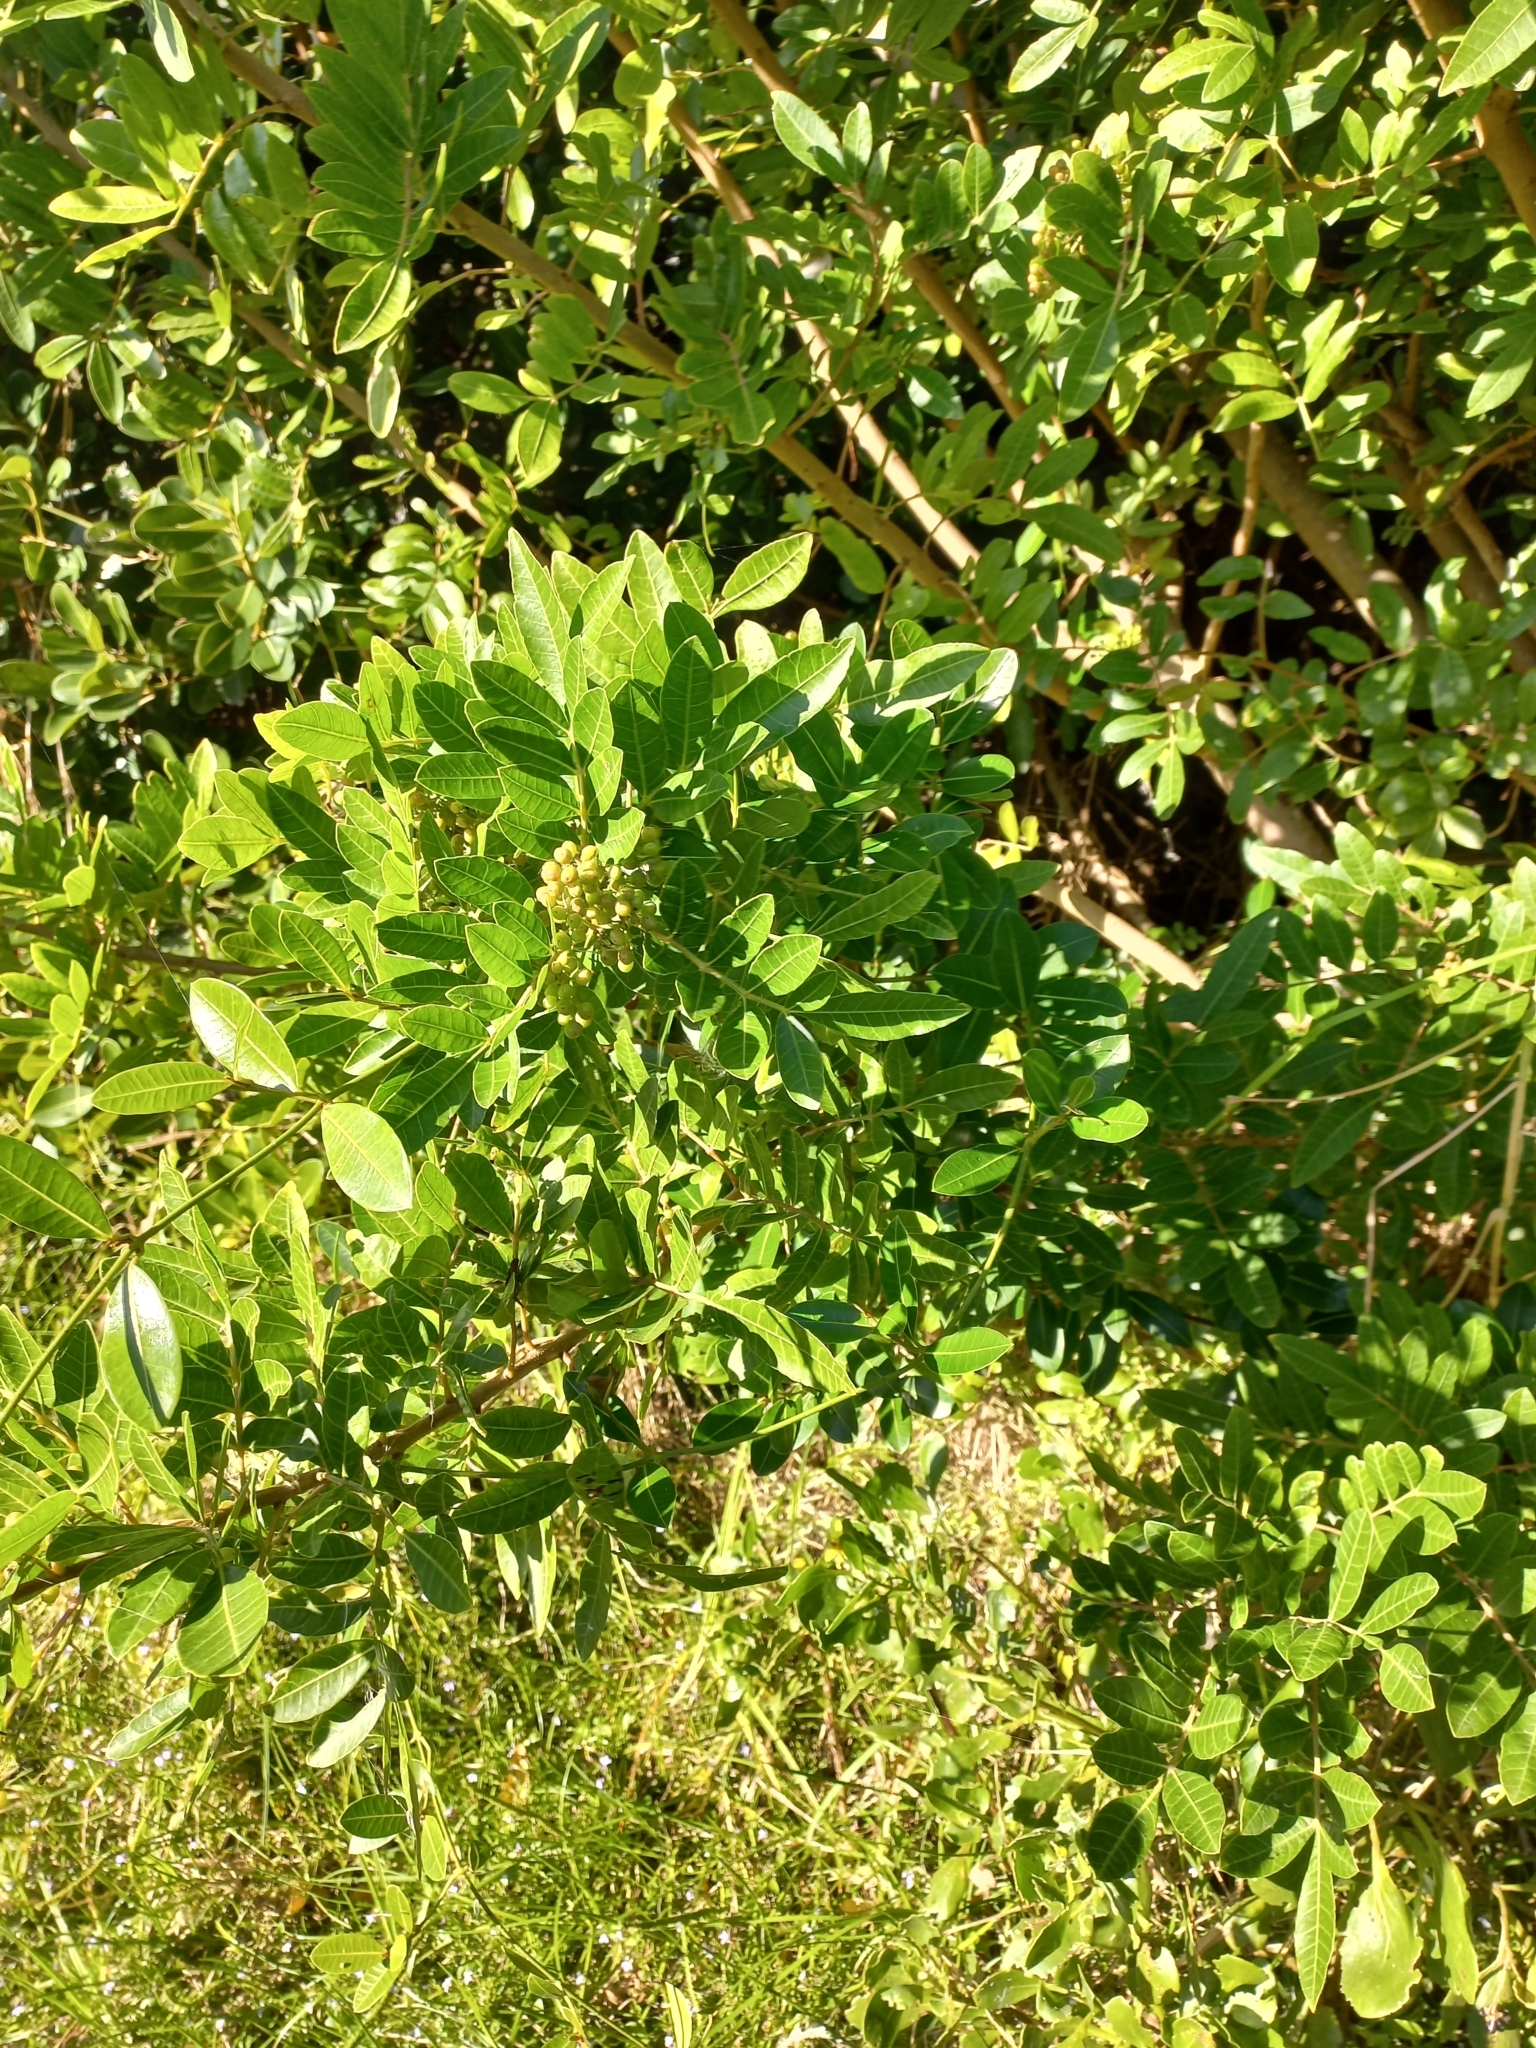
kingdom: Plantae
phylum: Tracheophyta
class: Magnoliopsida
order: Sapindales
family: Anacardiaceae
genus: Schinus
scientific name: Schinus terebinthifolia
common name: Brazilian peppertree
